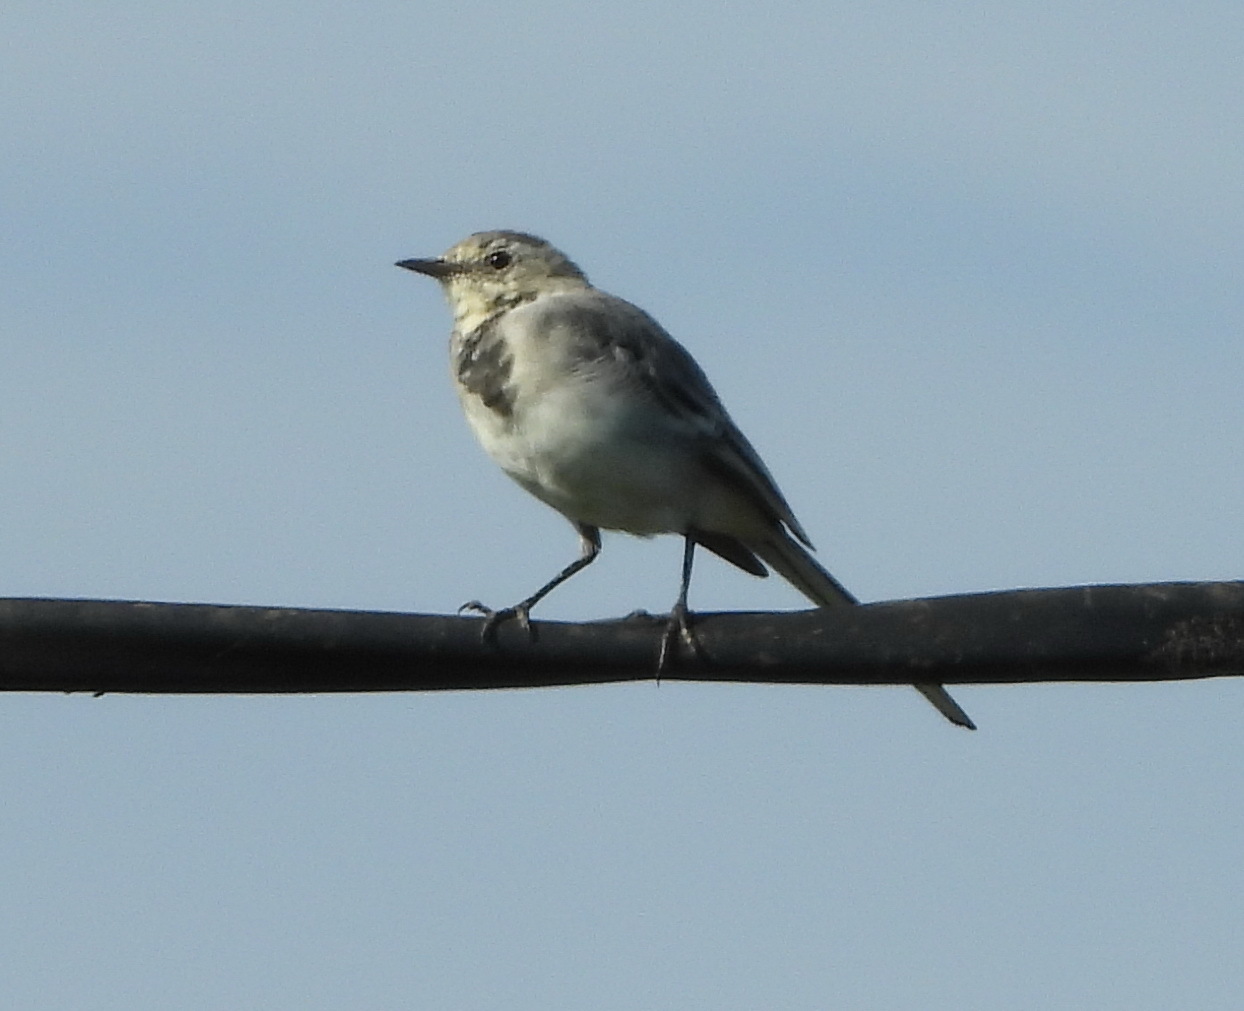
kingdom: Animalia
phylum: Chordata
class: Aves
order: Passeriformes
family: Motacillidae
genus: Motacilla
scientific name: Motacilla alba
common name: White wagtail
